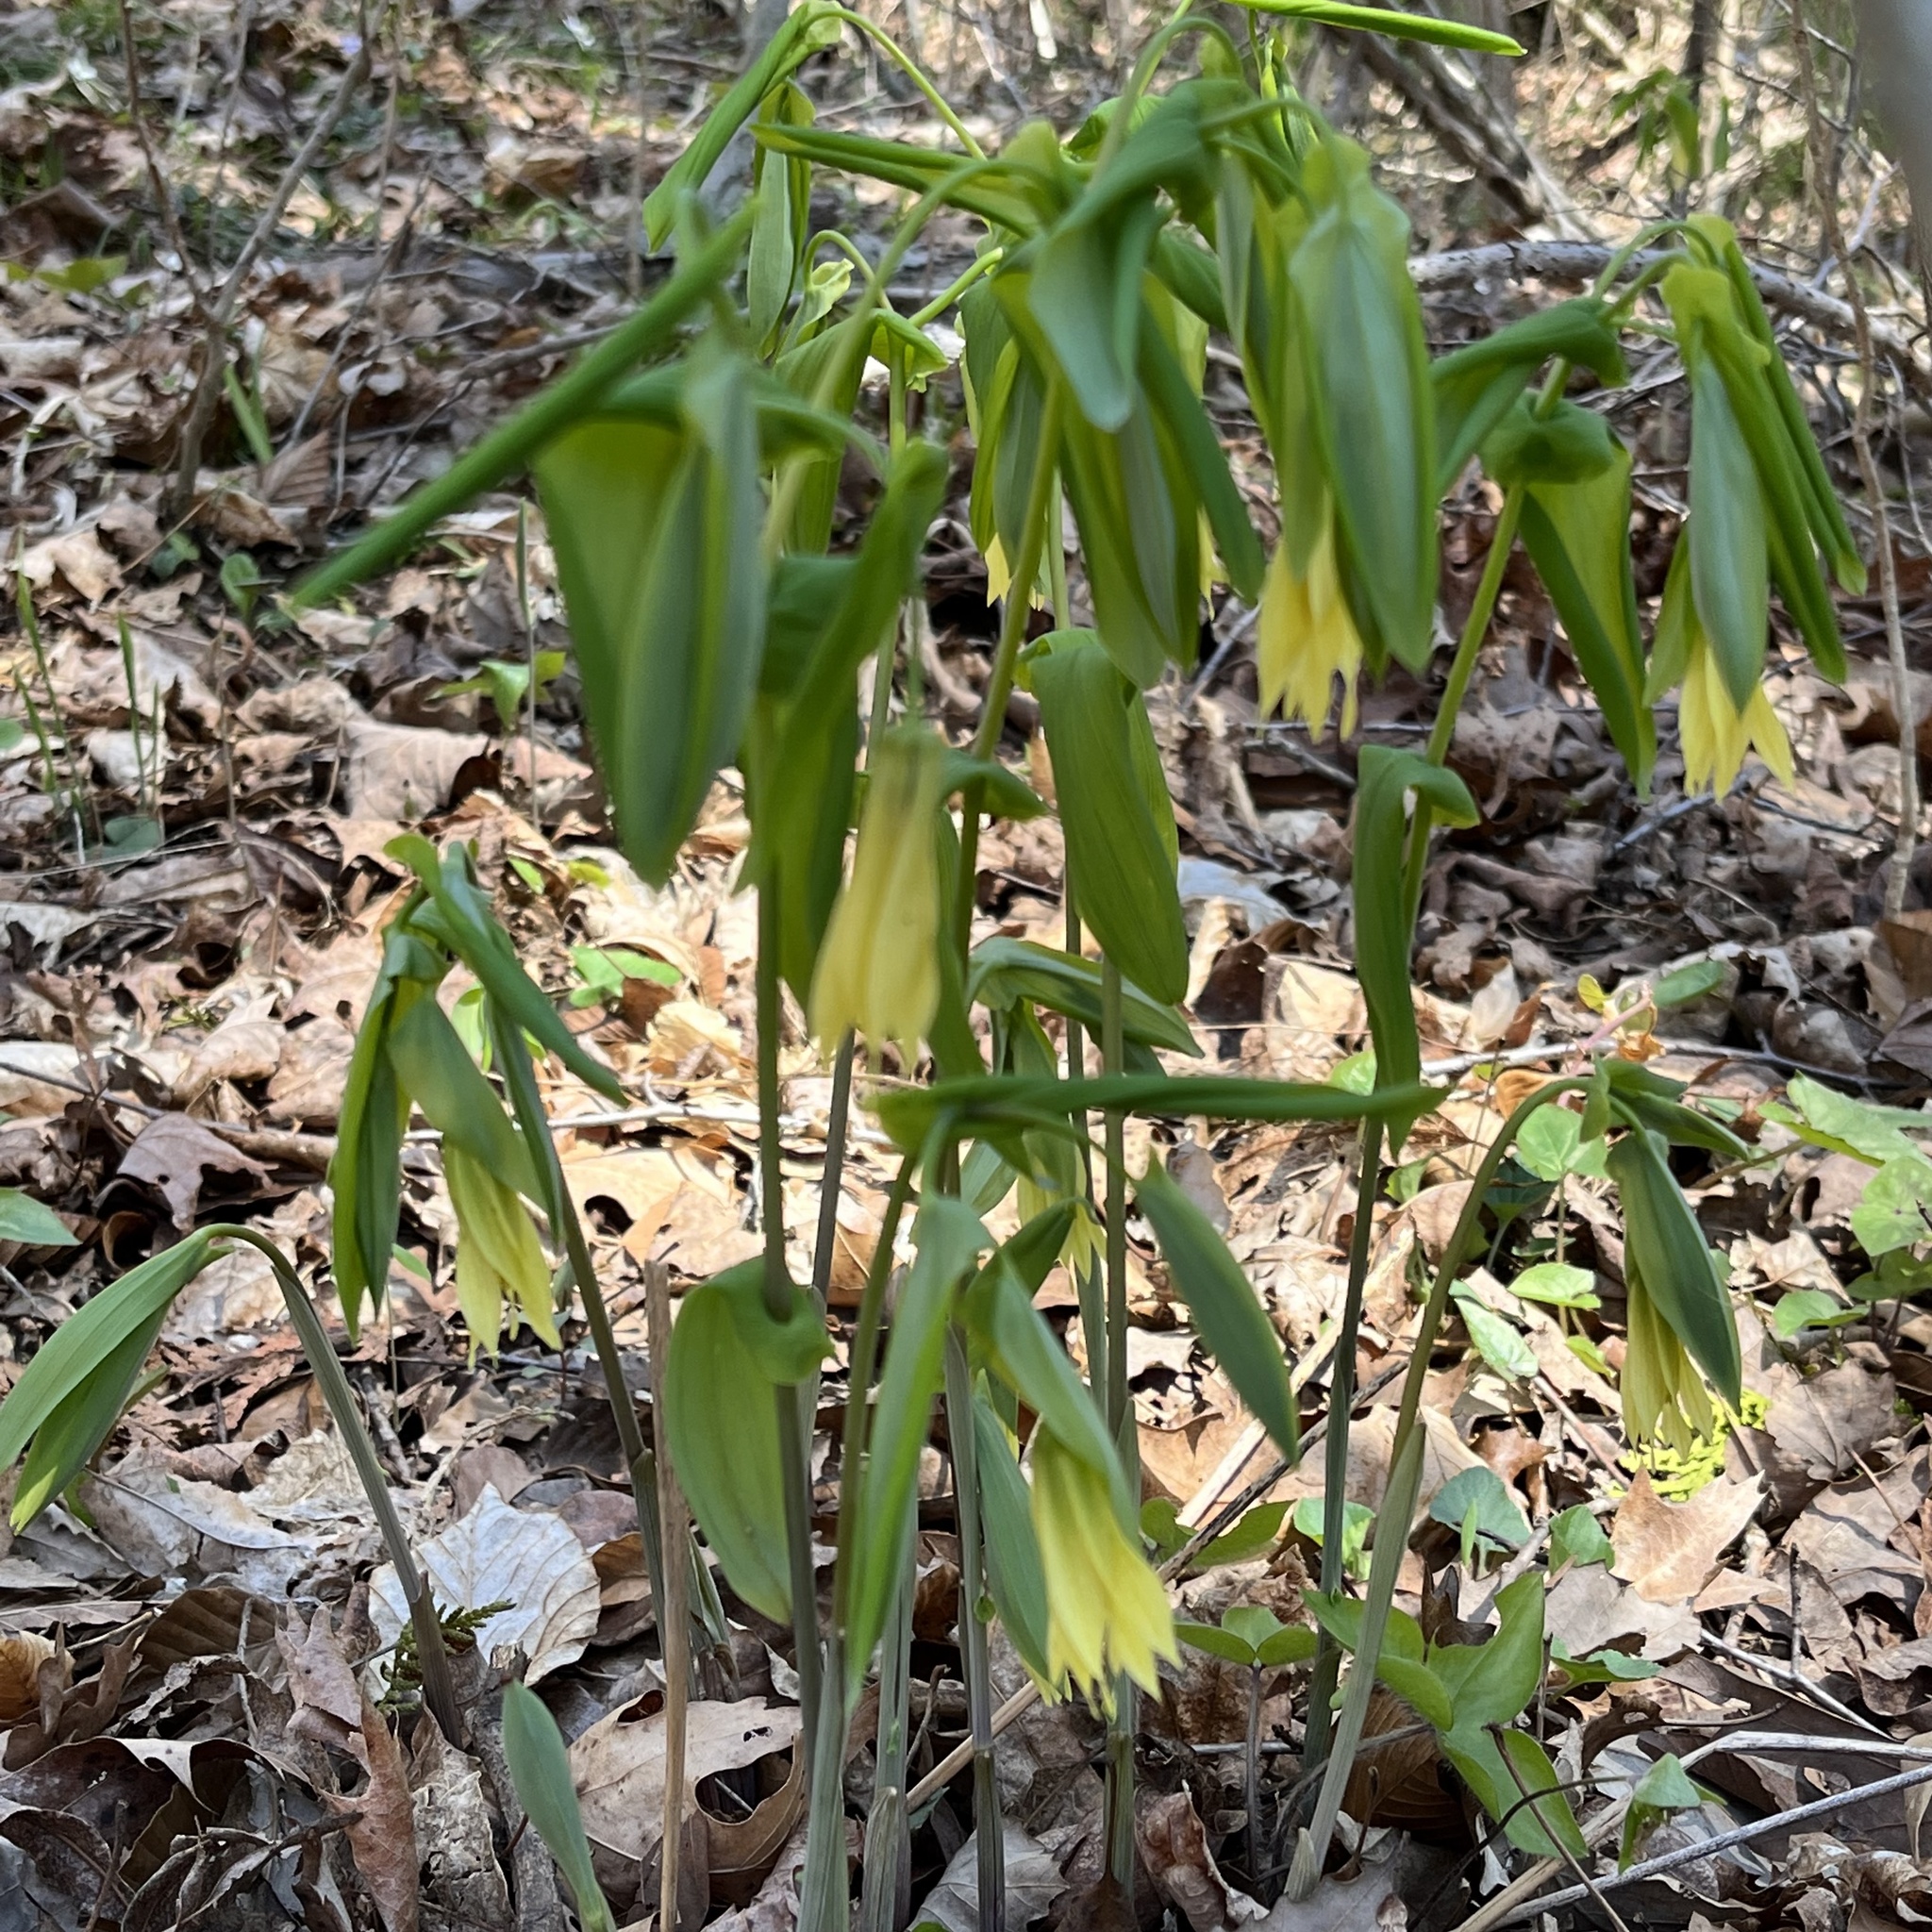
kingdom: Plantae
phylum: Tracheophyta
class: Liliopsida
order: Liliales
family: Colchicaceae
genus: Uvularia
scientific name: Uvularia grandiflora
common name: Bellwort
